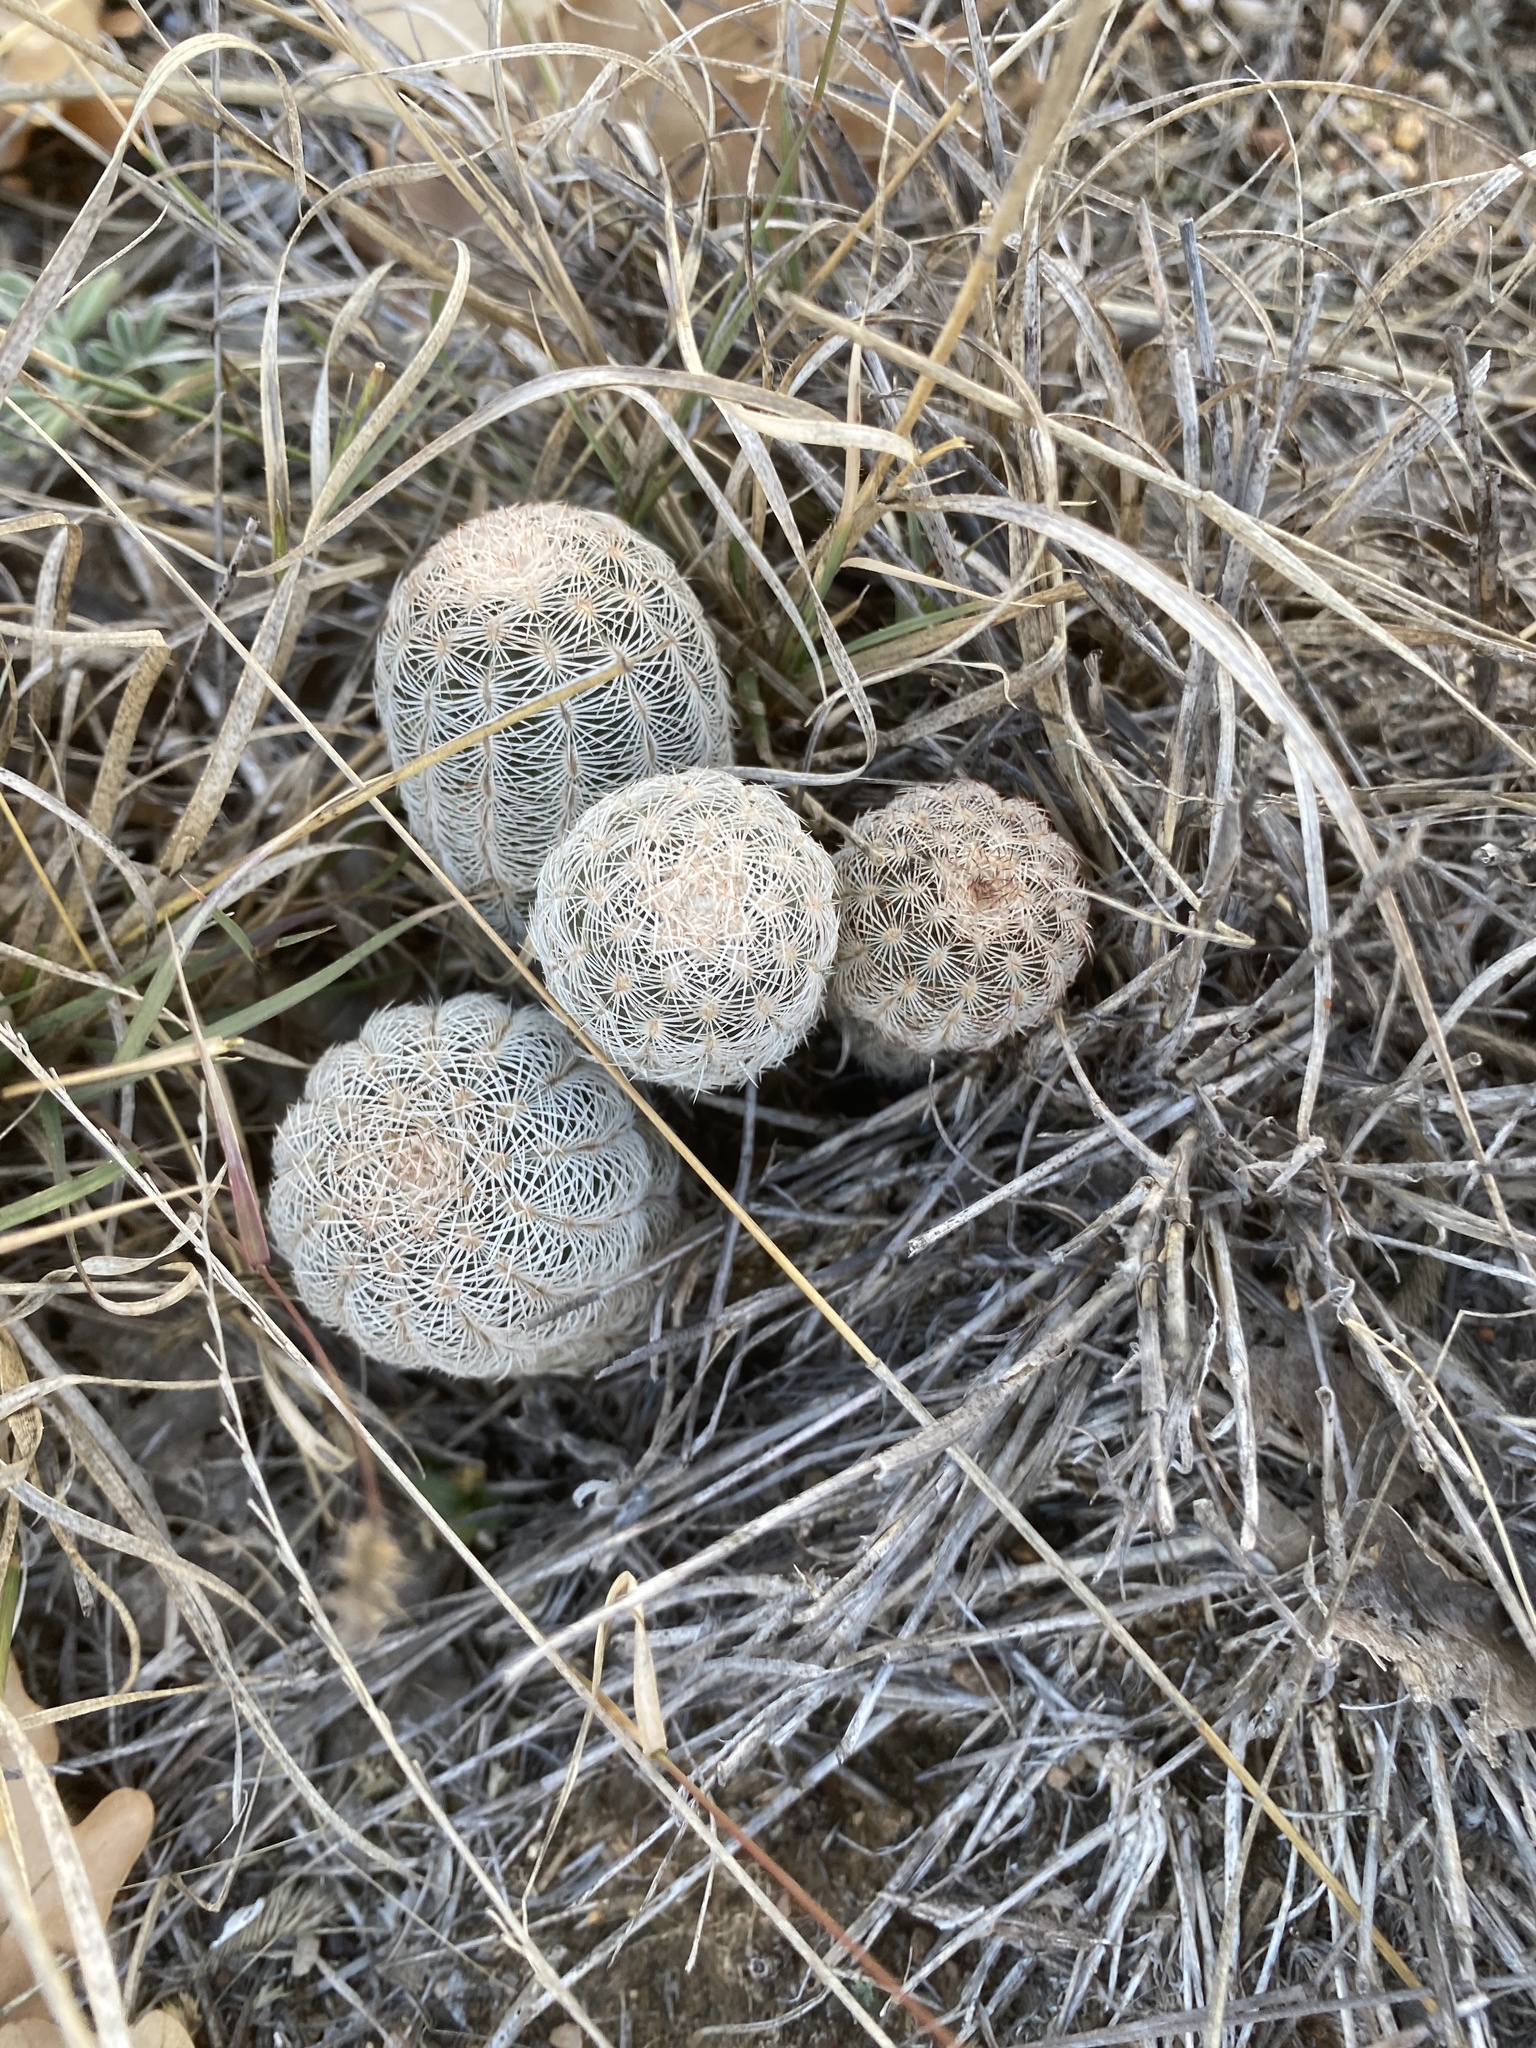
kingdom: Plantae
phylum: Tracheophyta
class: Magnoliopsida
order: Caryophyllales
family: Cactaceae
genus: Echinocereus
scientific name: Echinocereus reichenbachii
